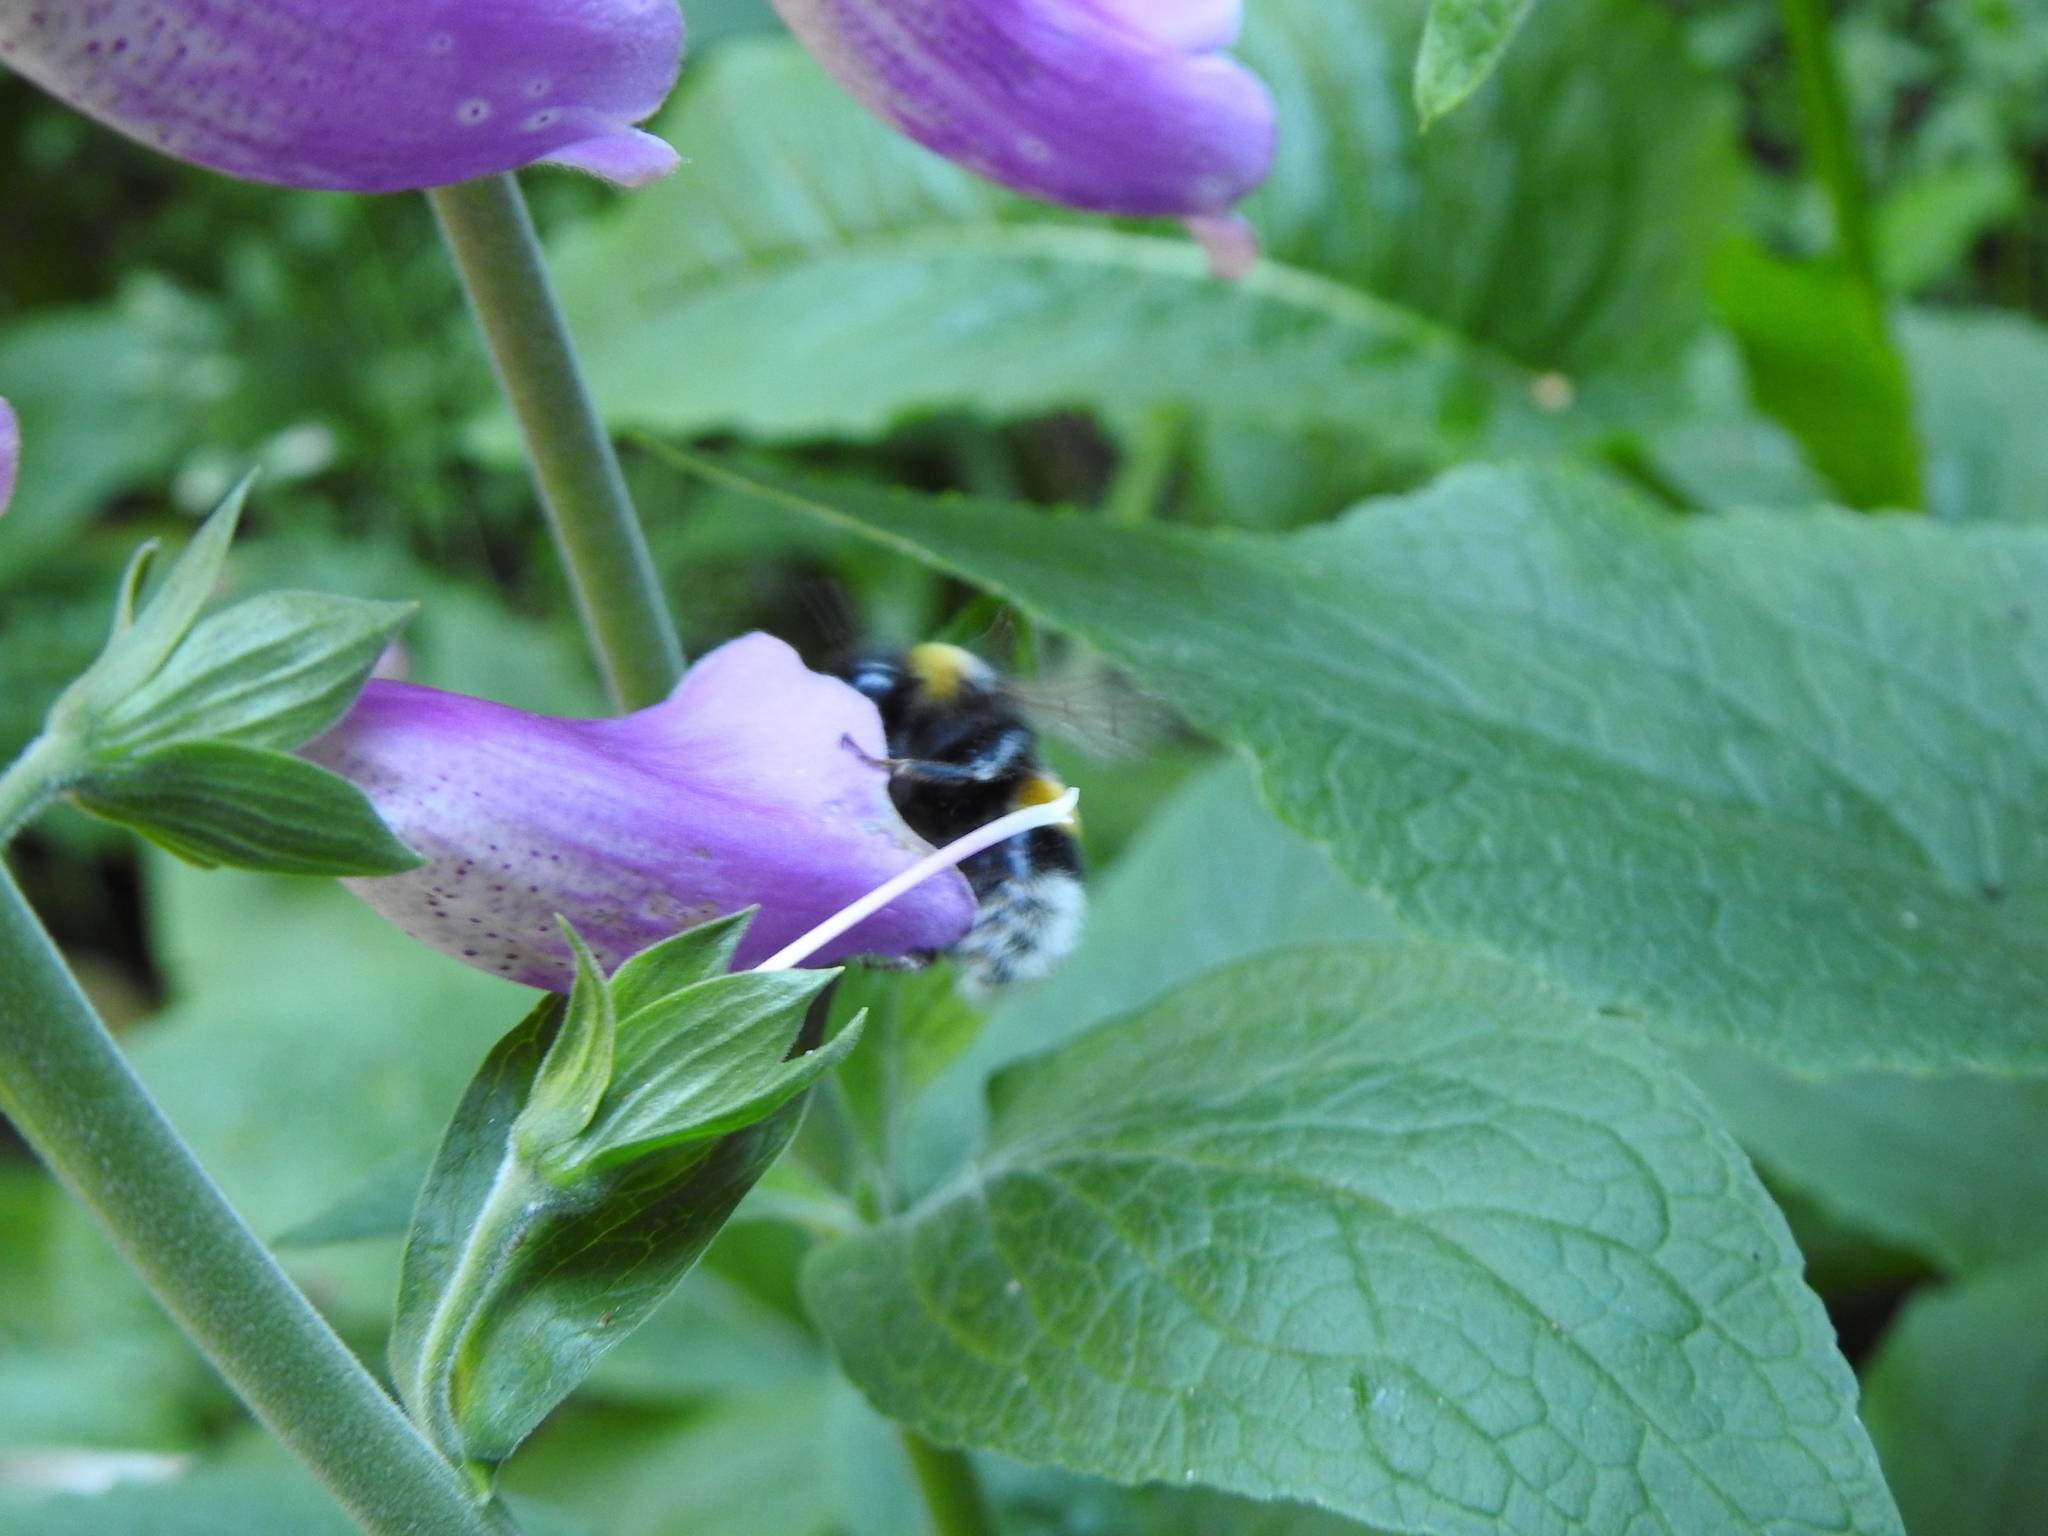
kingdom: Animalia
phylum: Arthropoda
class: Insecta
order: Hymenoptera
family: Apidae
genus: Bombus
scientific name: Bombus terrestris
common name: Buff-tailed bumblebee
